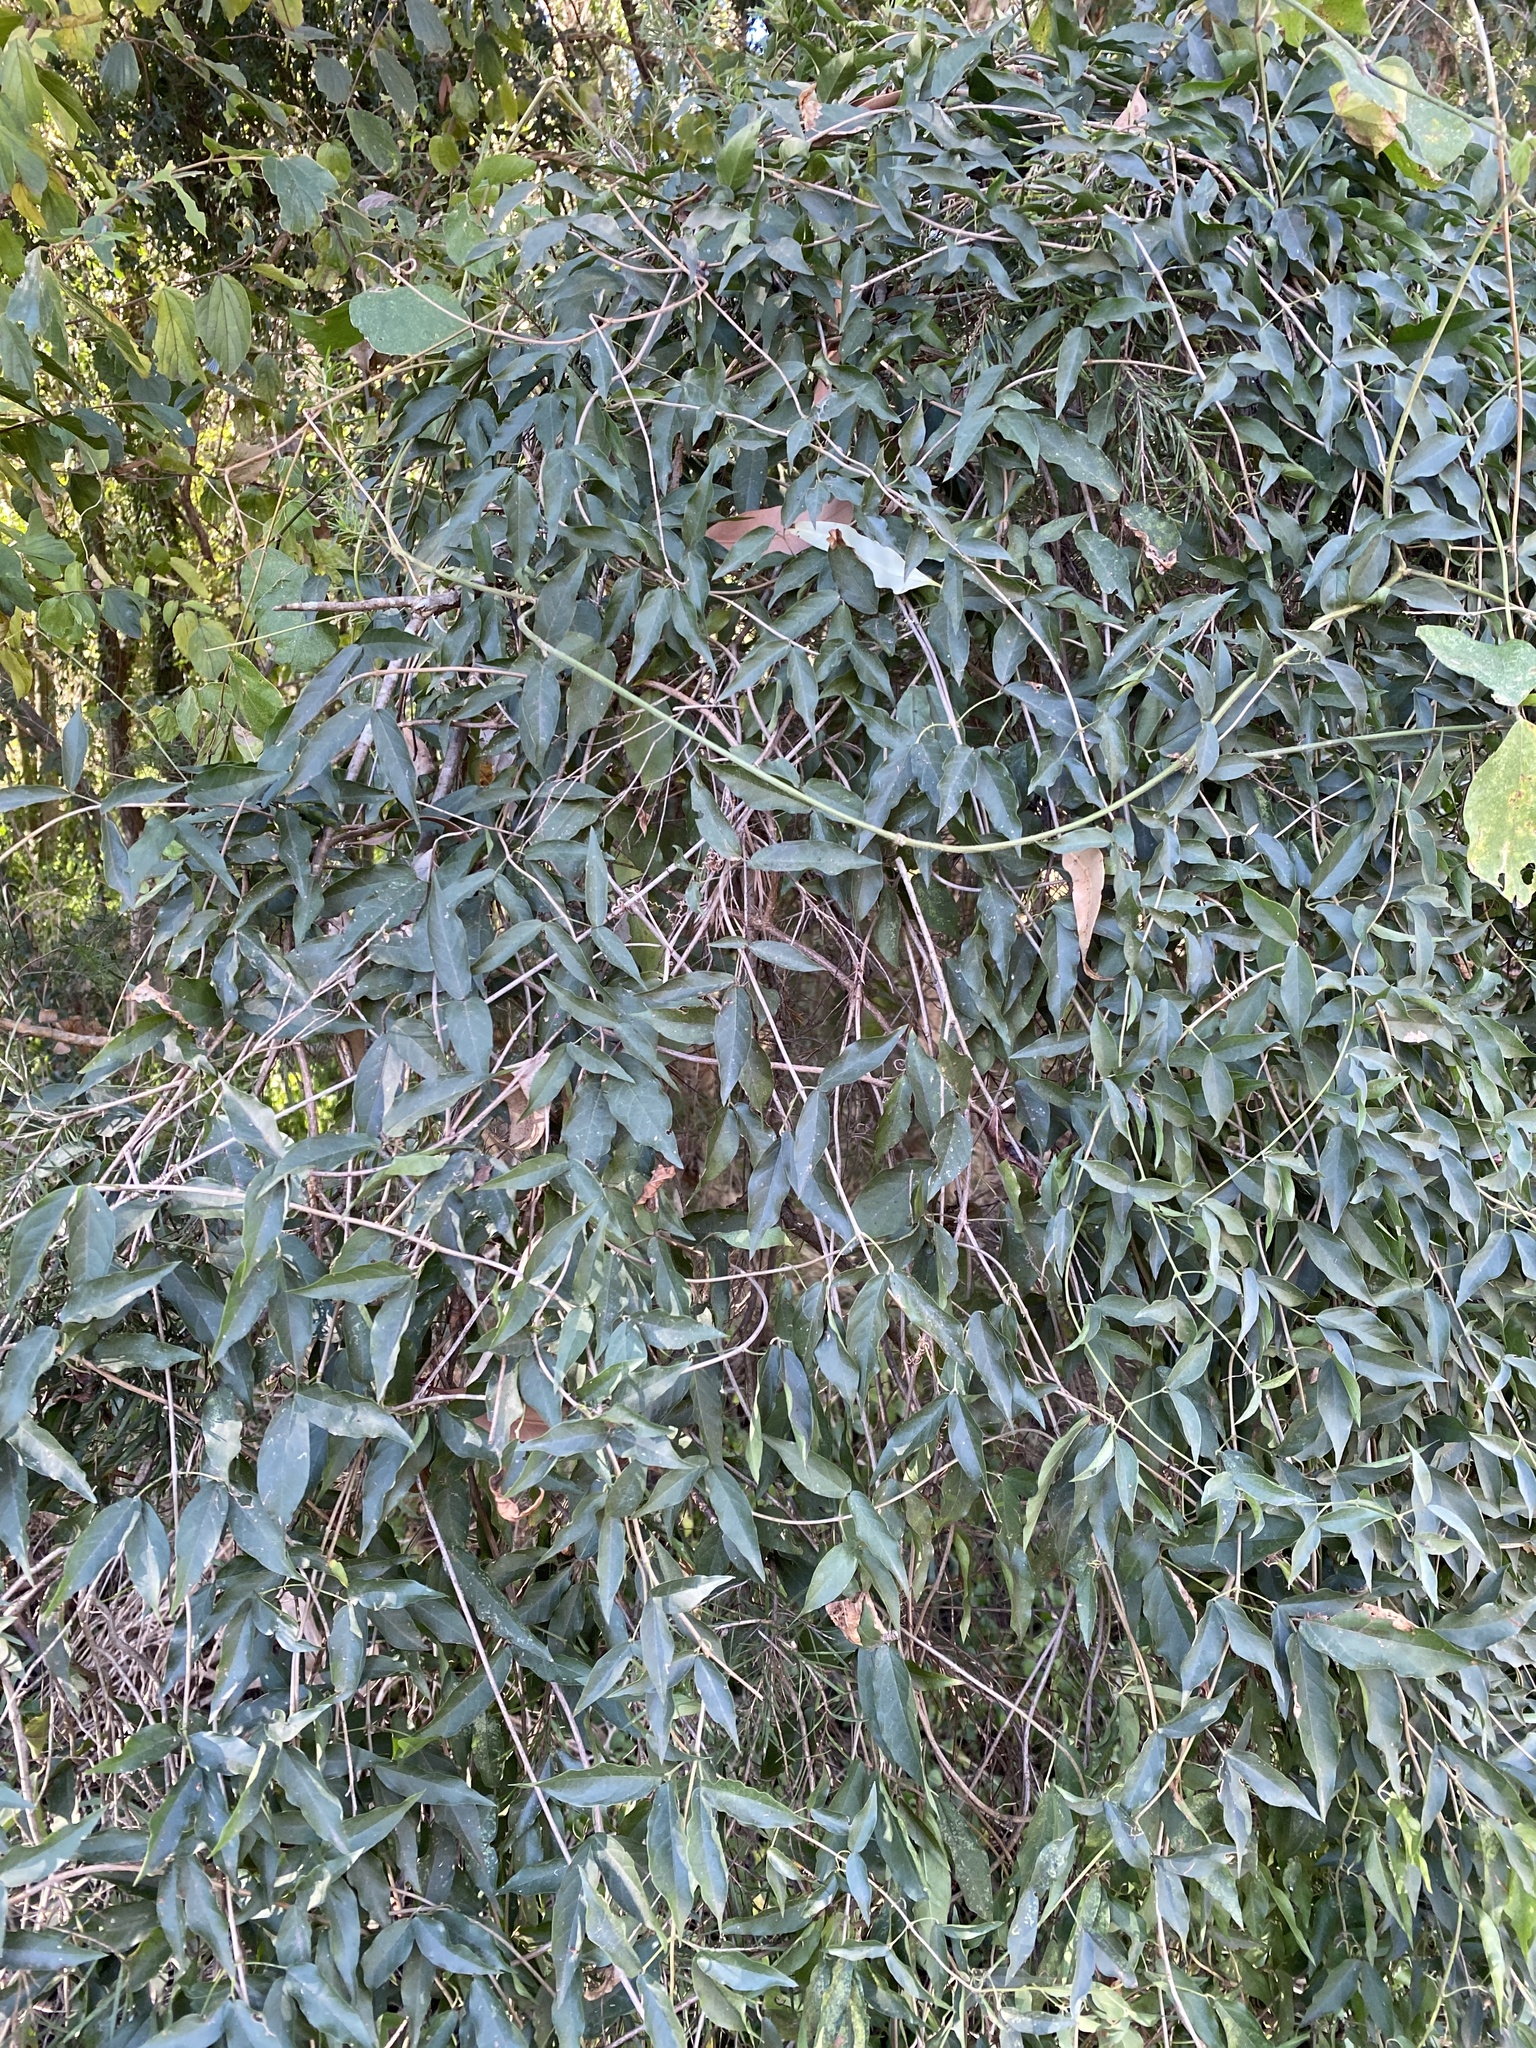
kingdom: Plantae
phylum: Tracheophyta
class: Magnoliopsida
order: Lamiales
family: Bignoniaceae
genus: Dolichandra
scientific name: Dolichandra unguis-cati
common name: Catclaw vine
